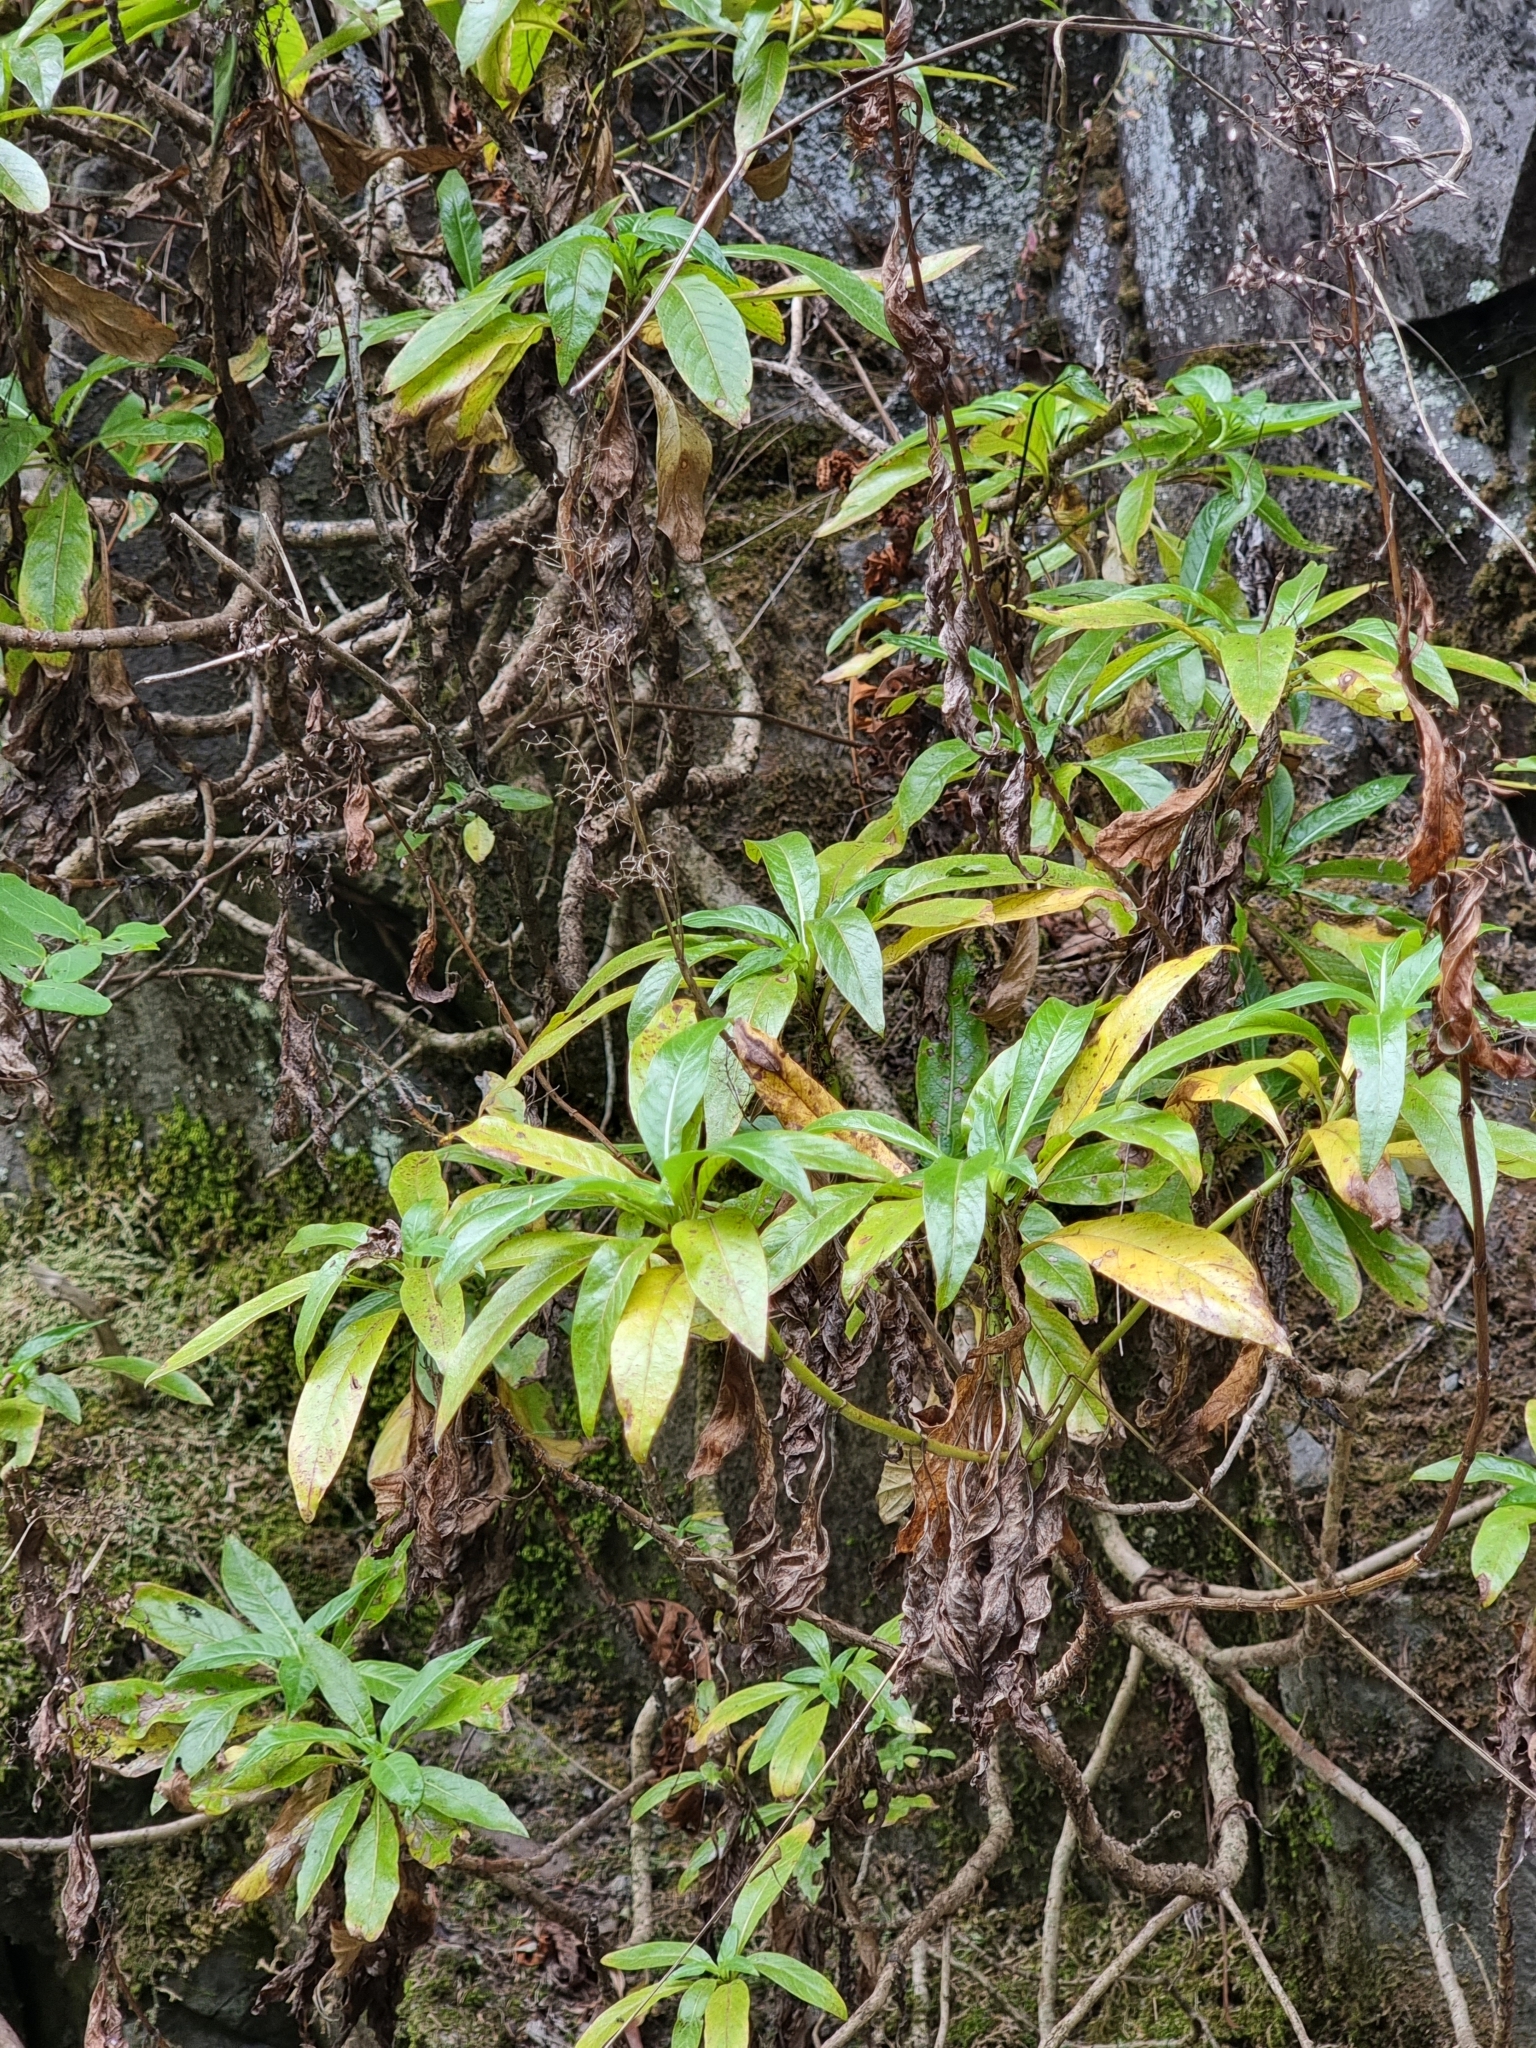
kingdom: Plantae
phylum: Tracheophyta
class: Magnoliopsida
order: Gentianales
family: Rubiaceae
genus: Phyllis
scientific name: Phyllis nobla
